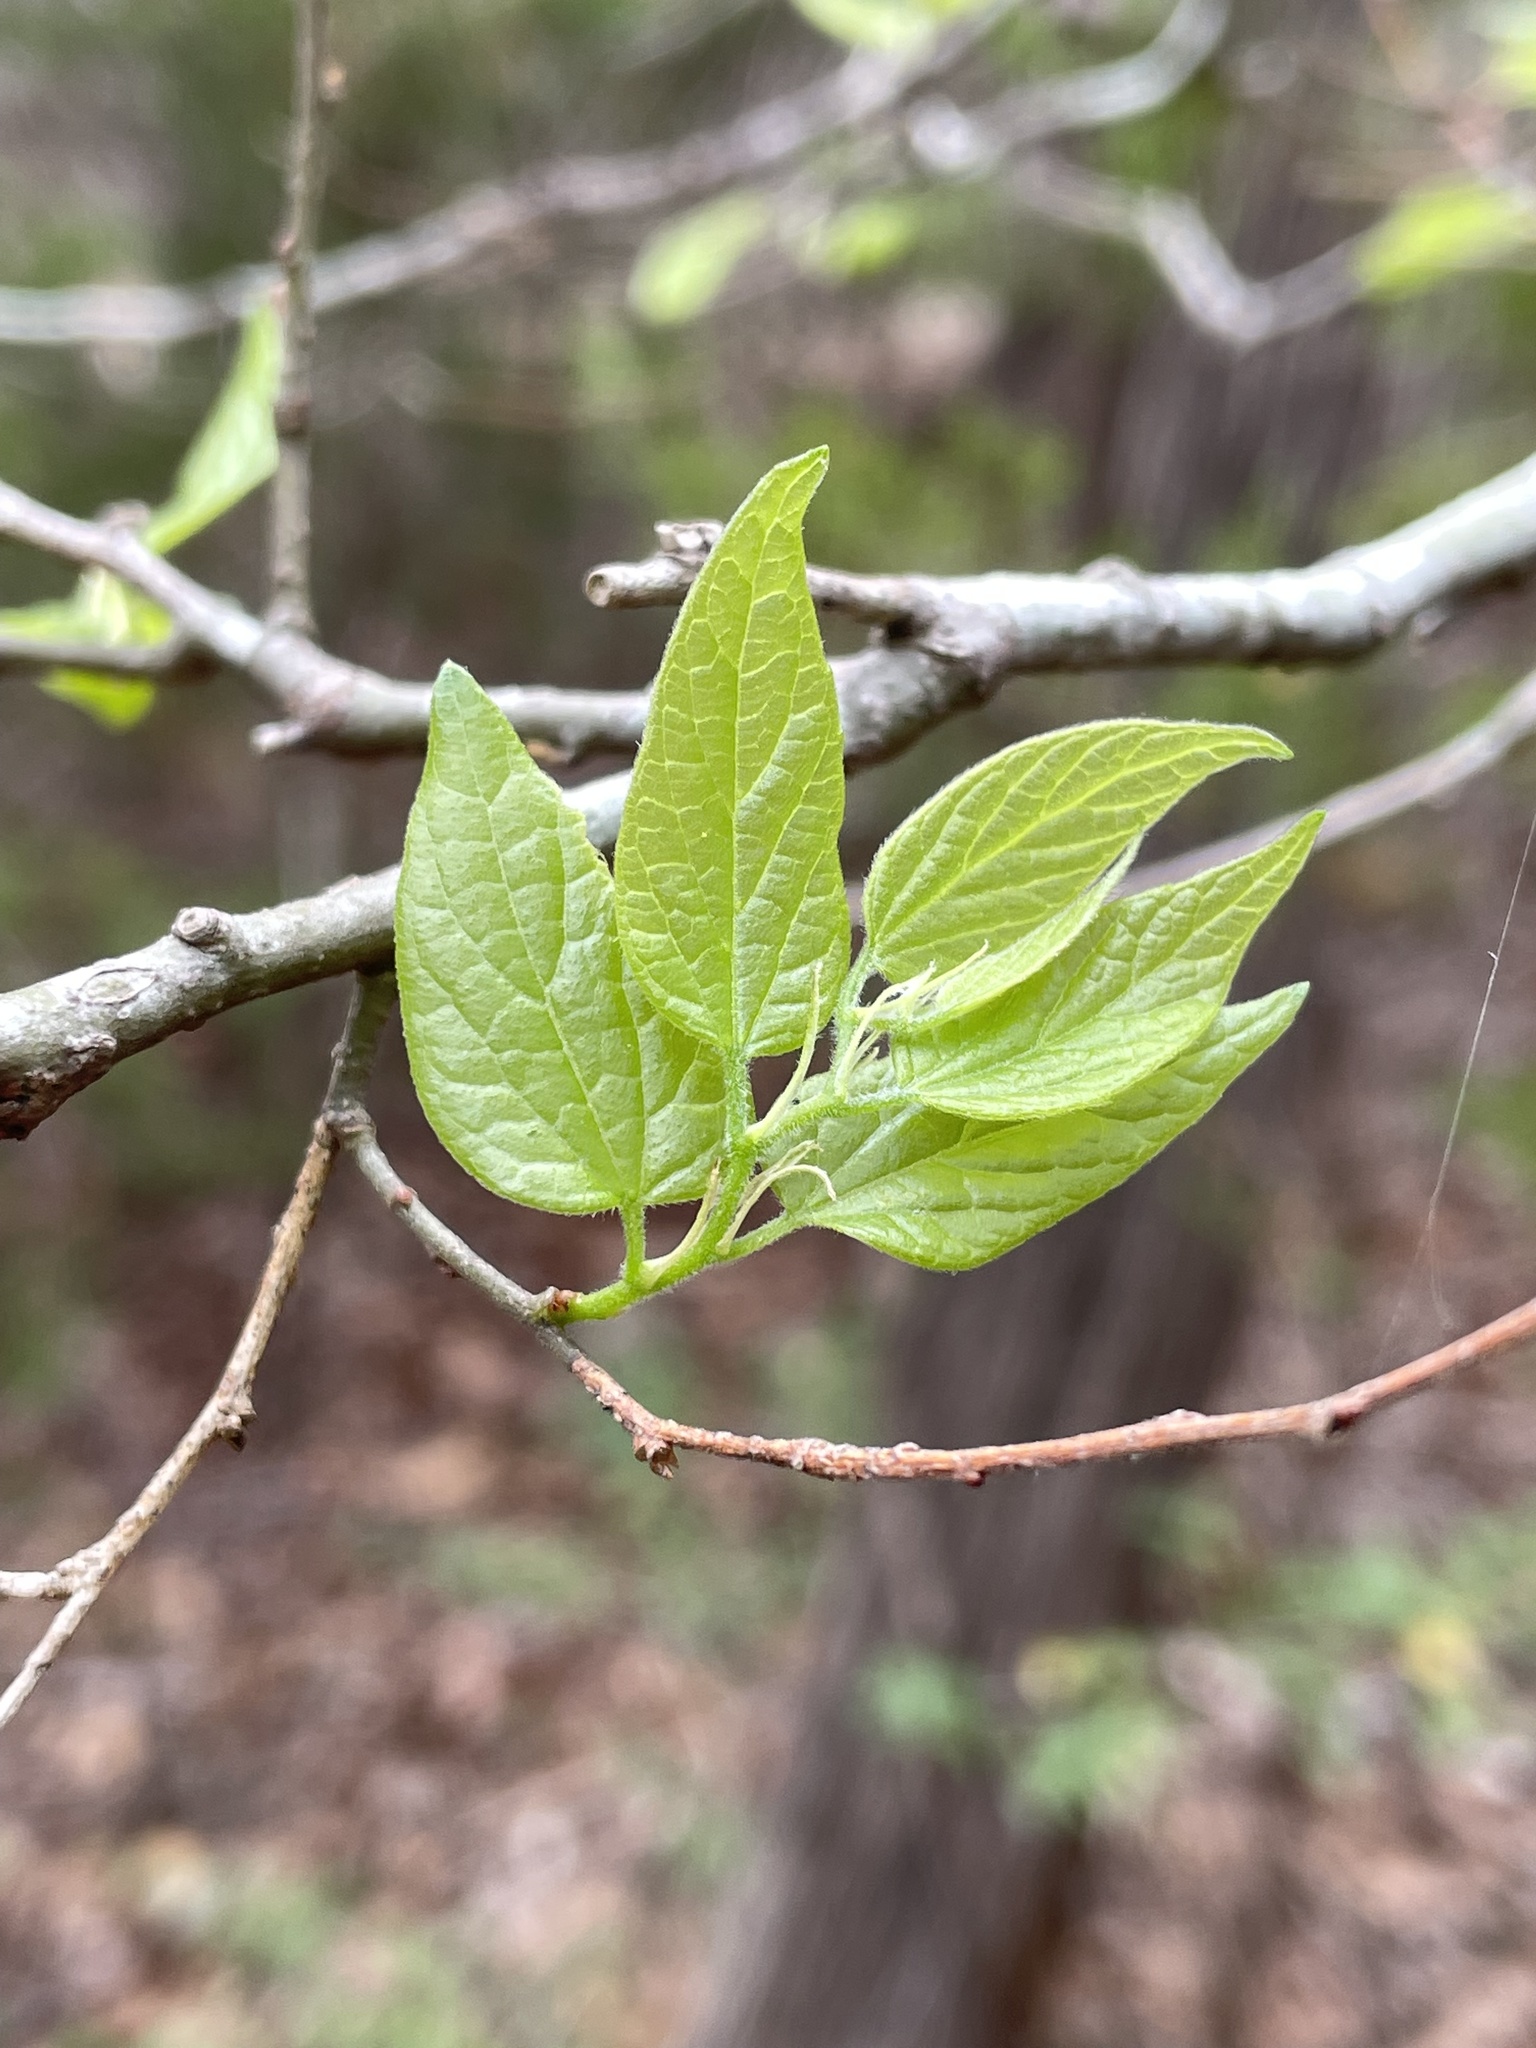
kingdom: Plantae
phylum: Tracheophyta
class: Magnoliopsida
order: Rosales
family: Cannabaceae
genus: Celtis
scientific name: Celtis laevigata
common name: Sugarberry
